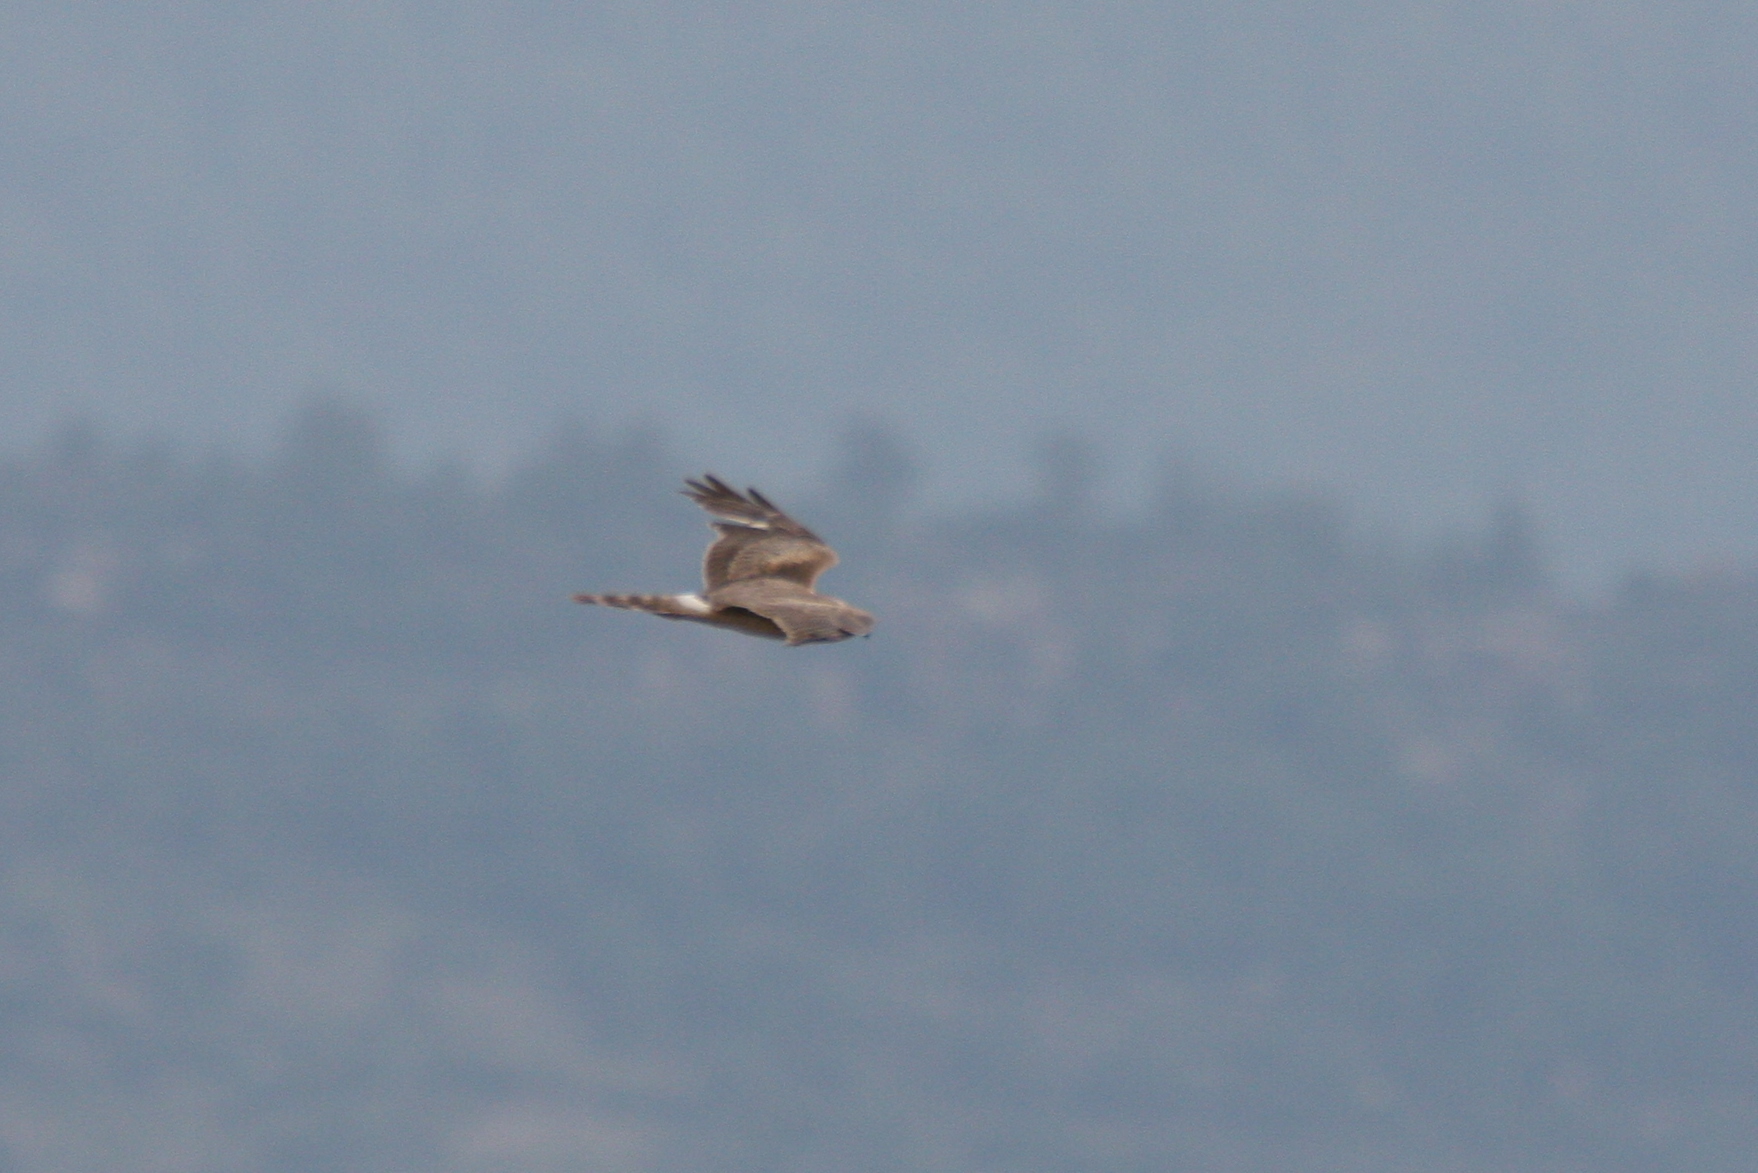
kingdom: Animalia
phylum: Chordata
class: Aves
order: Accipitriformes
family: Accipitridae
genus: Circus
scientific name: Circus macrourus
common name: Pallid harrier
